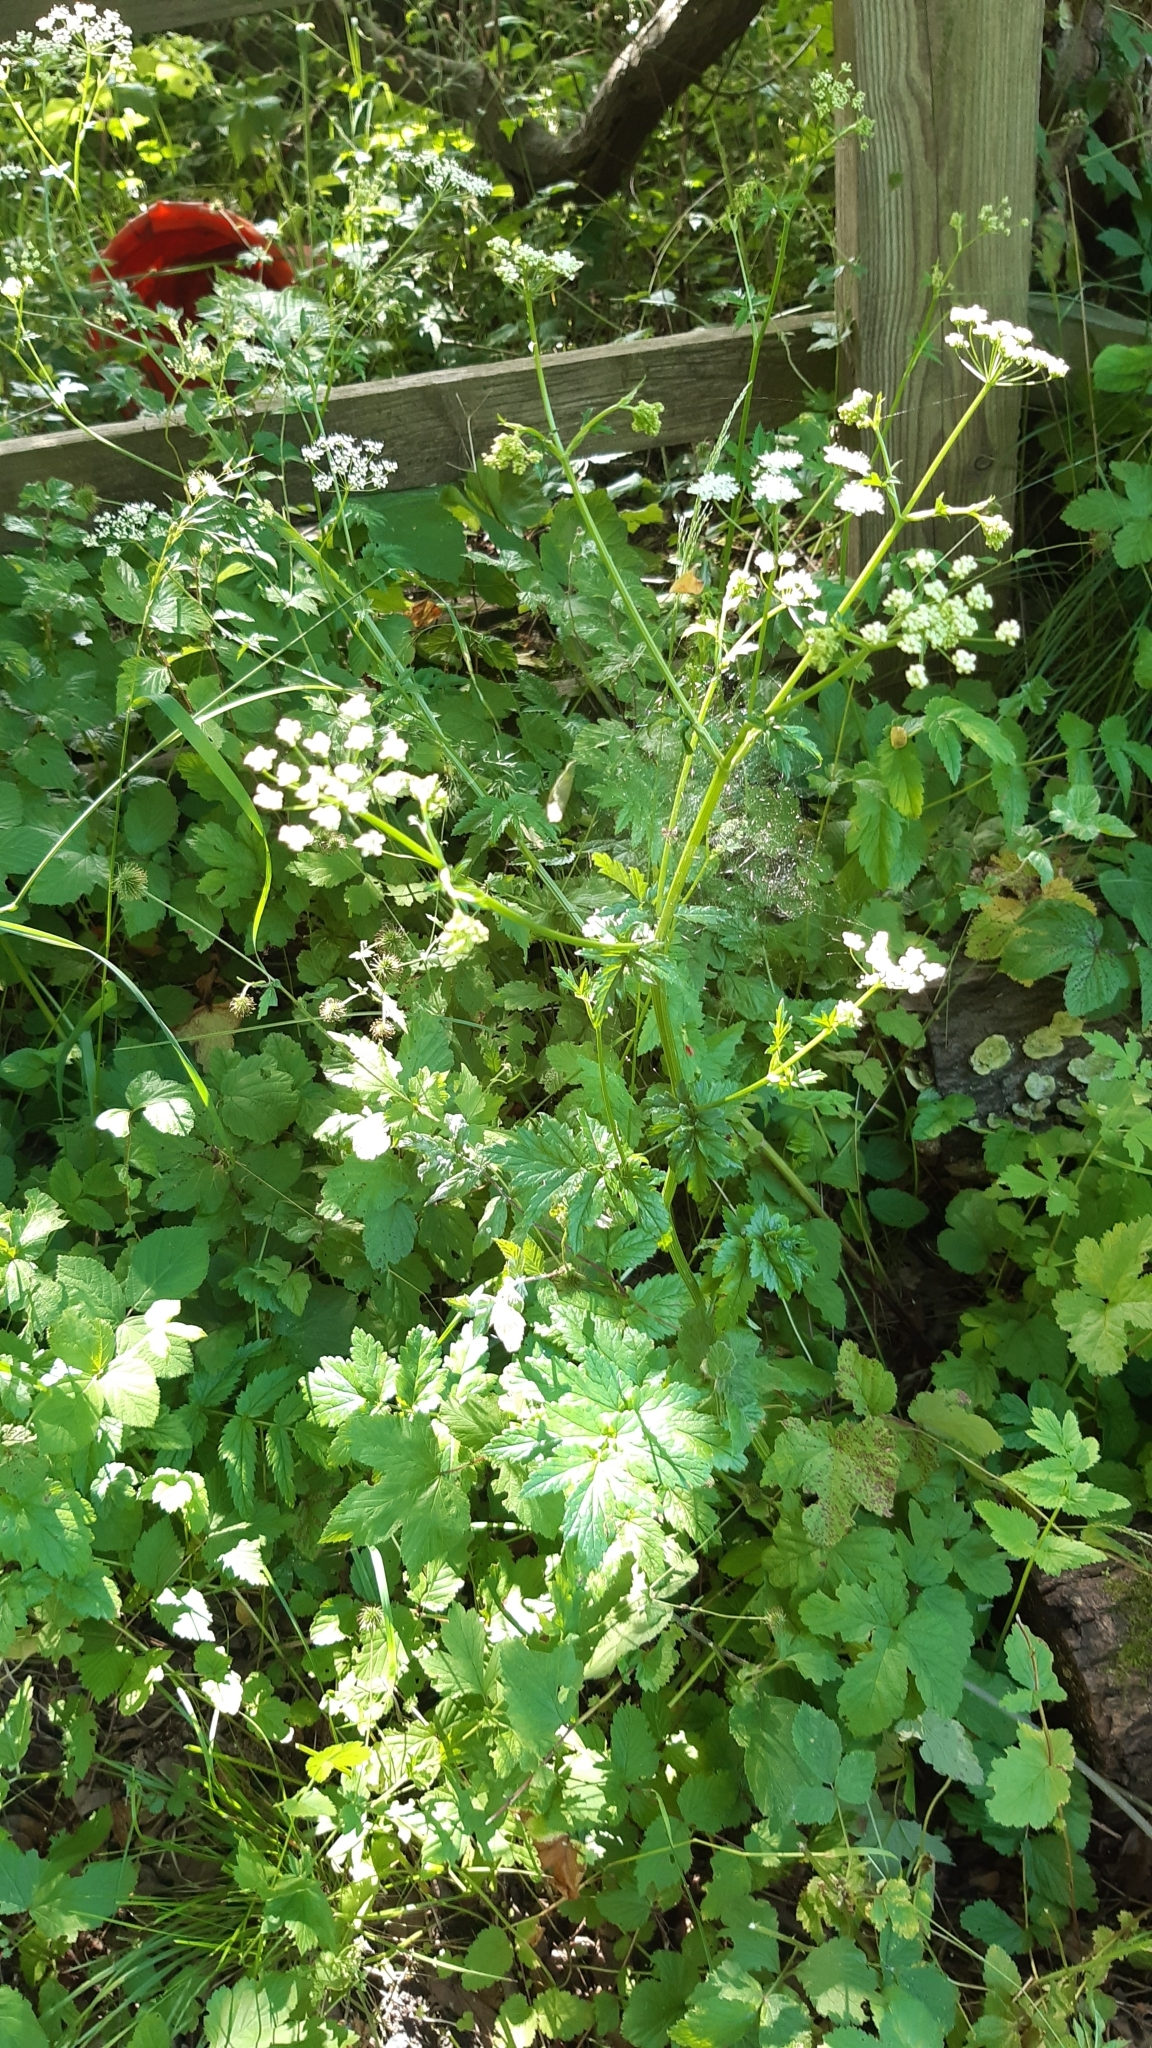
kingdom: Plantae
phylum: Tracheophyta
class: Magnoliopsida
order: Apiales
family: Apiaceae
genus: Pimpinella
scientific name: Pimpinella major
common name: Greater burnet-saxifrage
